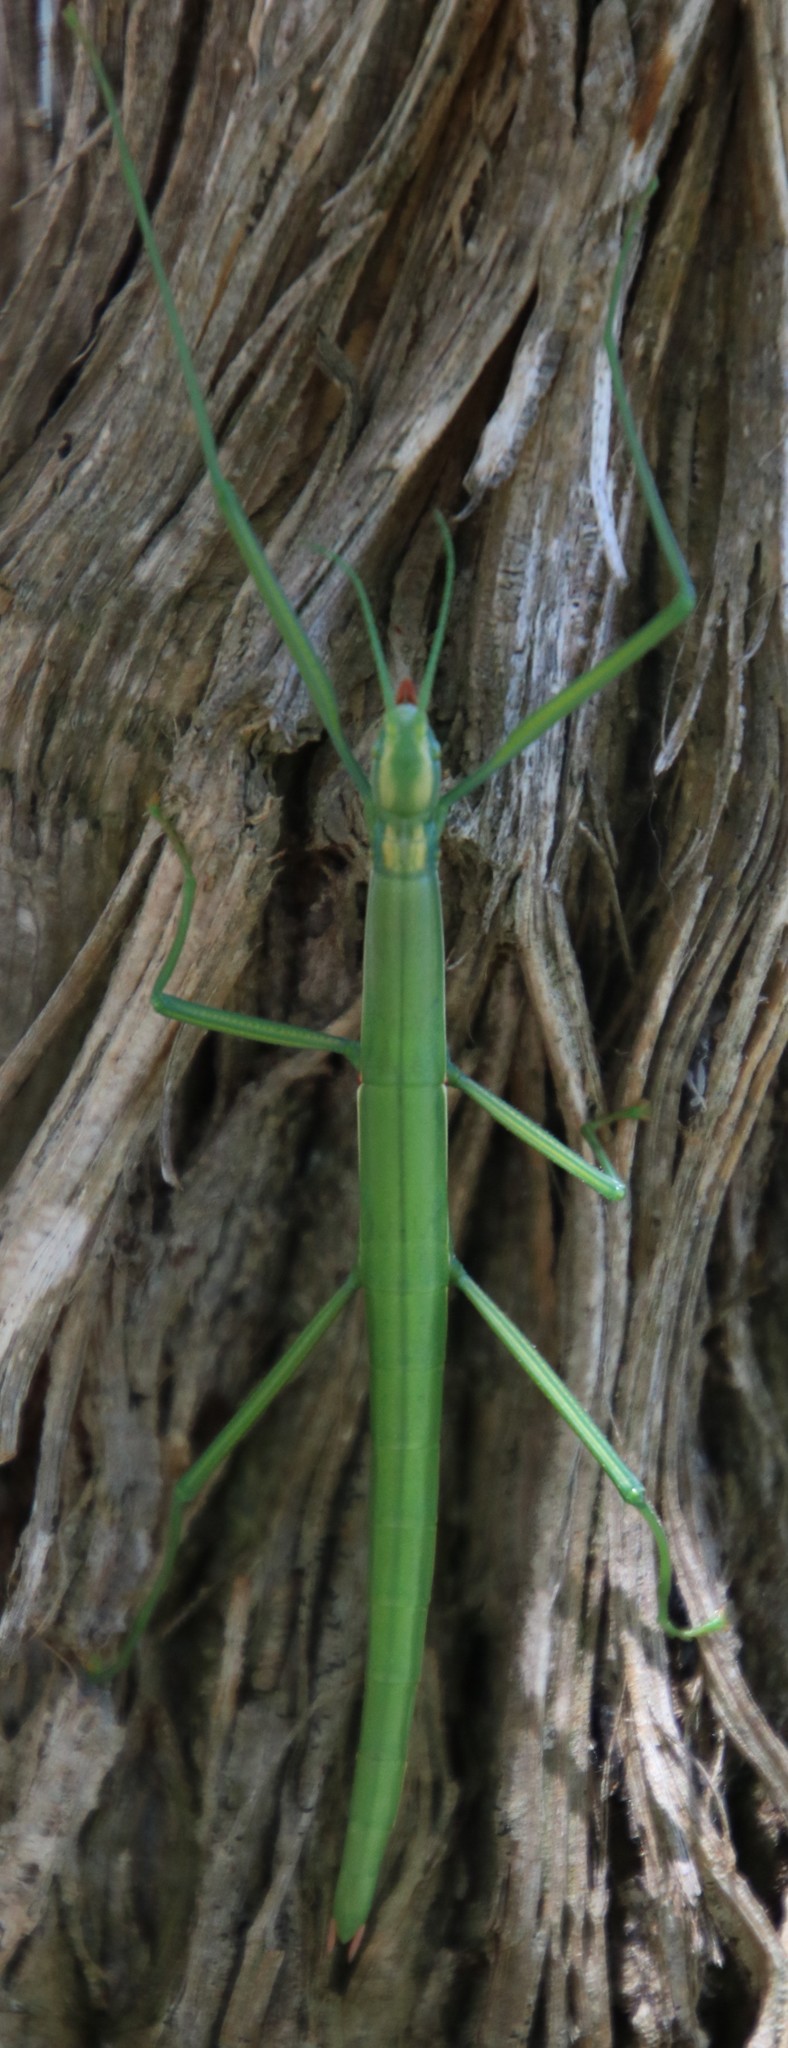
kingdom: Animalia
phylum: Arthropoda
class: Insecta
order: Phasmida
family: Bacillidae
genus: Macynia
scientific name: Macynia labiata
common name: Thunberg's stick insect
